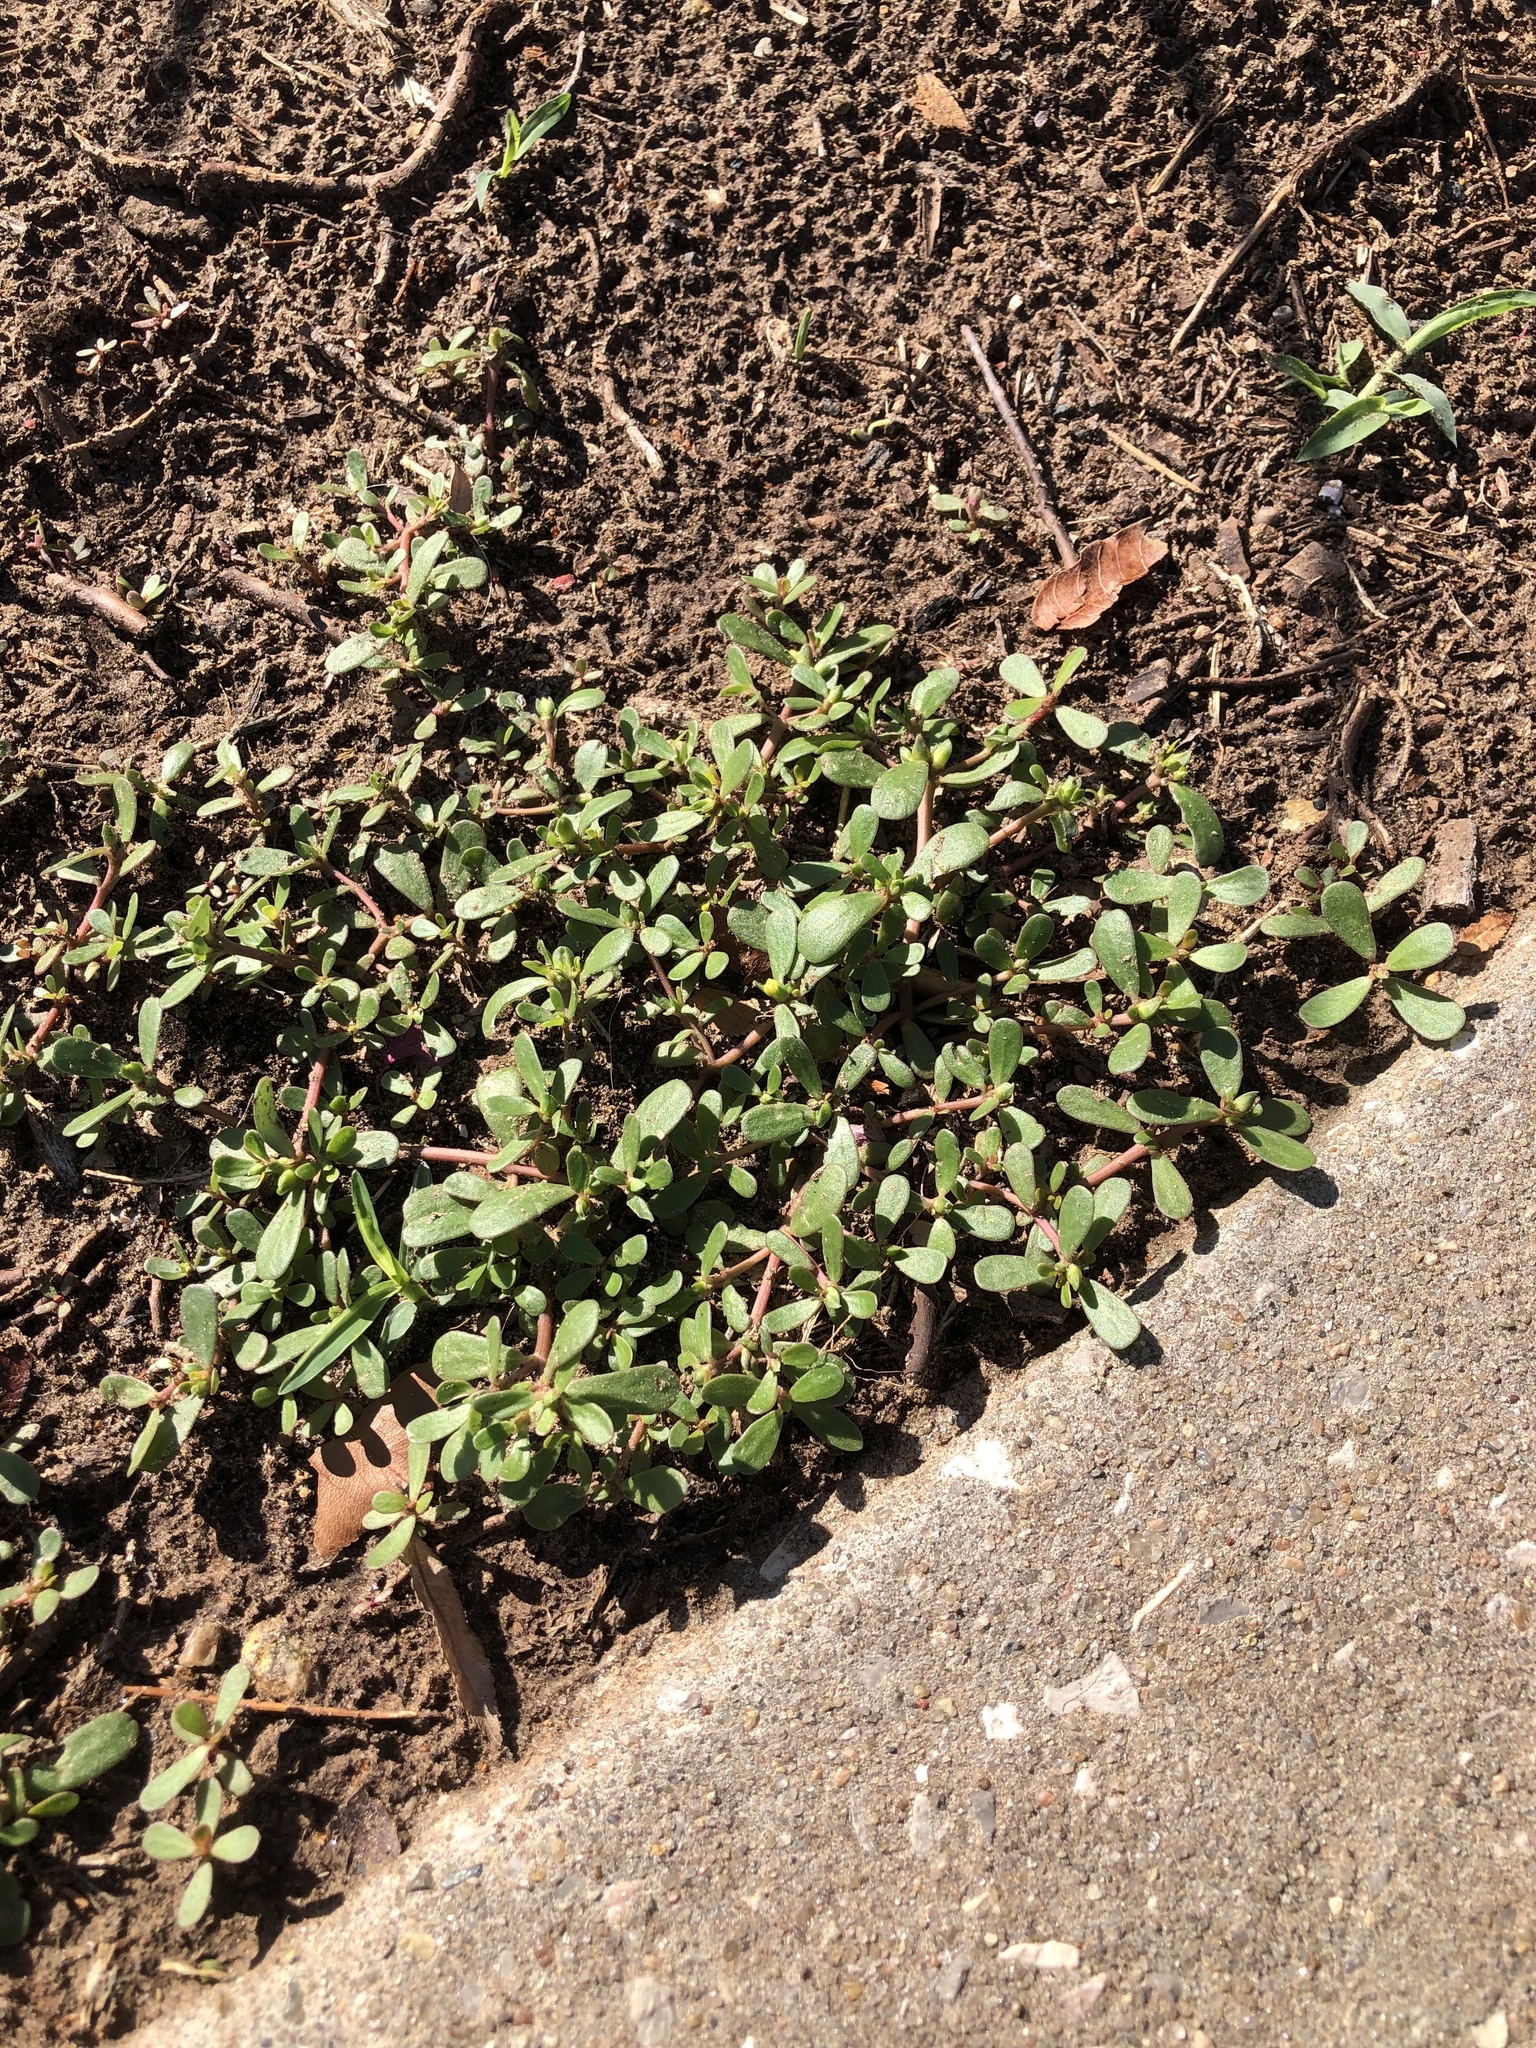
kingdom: Plantae
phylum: Tracheophyta
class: Magnoliopsida
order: Caryophyllales
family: Portulacaceae
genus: Portulaca
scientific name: Portulaca oleracea
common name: Common purslane
